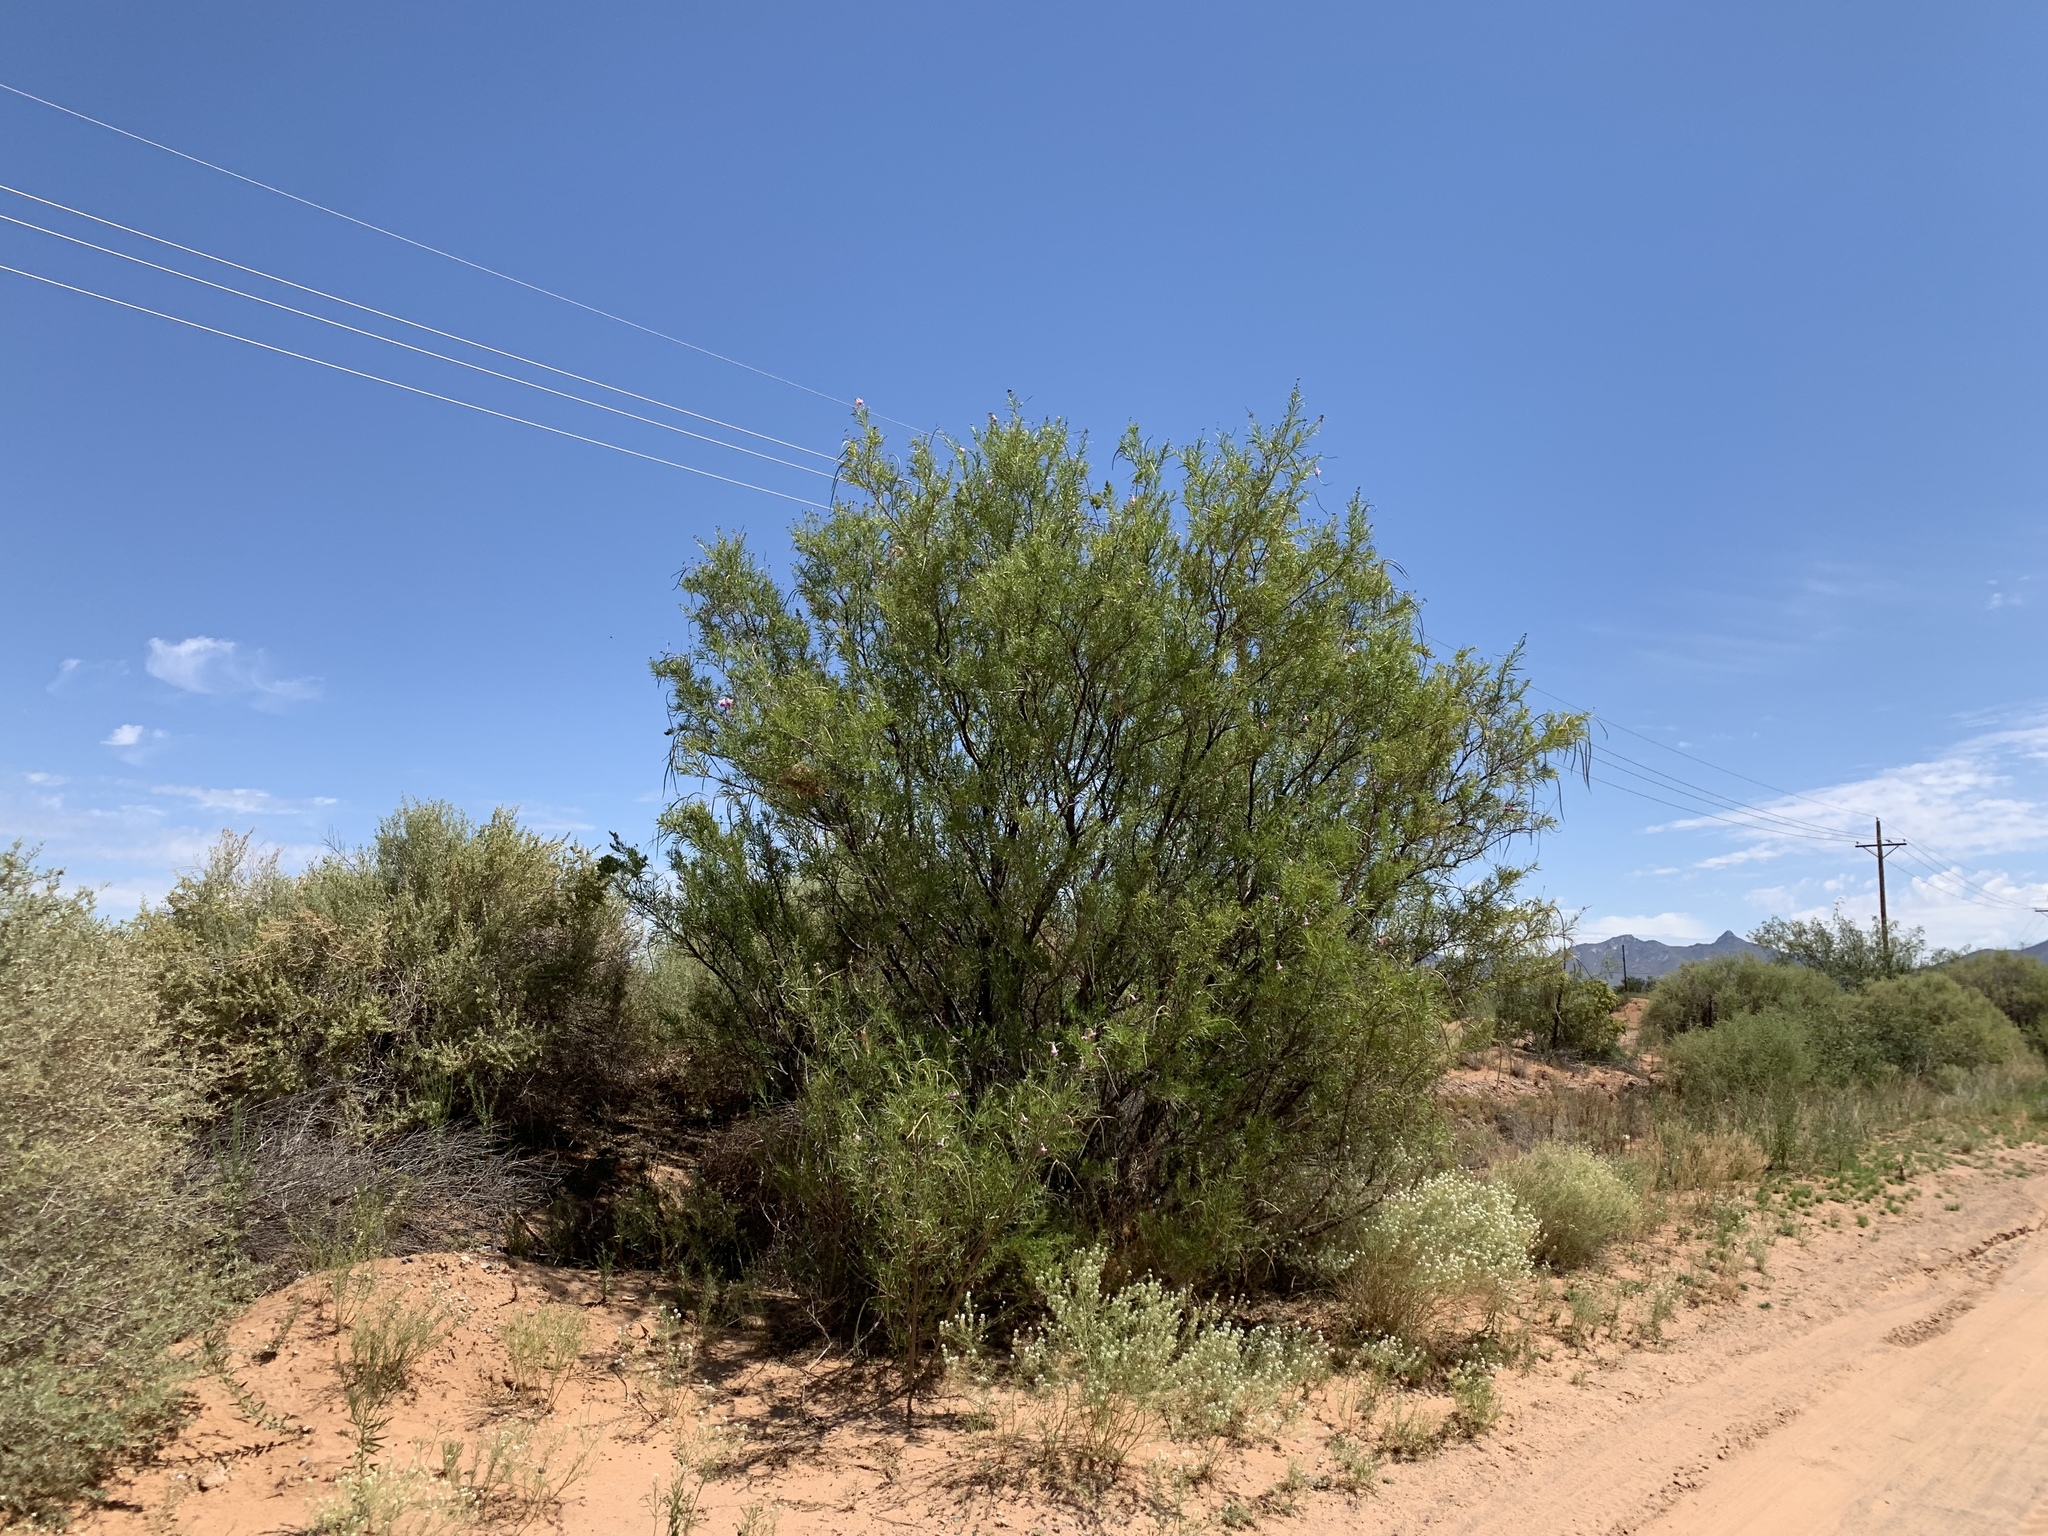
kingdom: Plantae
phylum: Tracheophyta
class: Magnoliopsida
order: Lamiales
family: Bignoniaceae
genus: Chilopsis
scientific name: Chilopsis linearis
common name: Desert-willow
